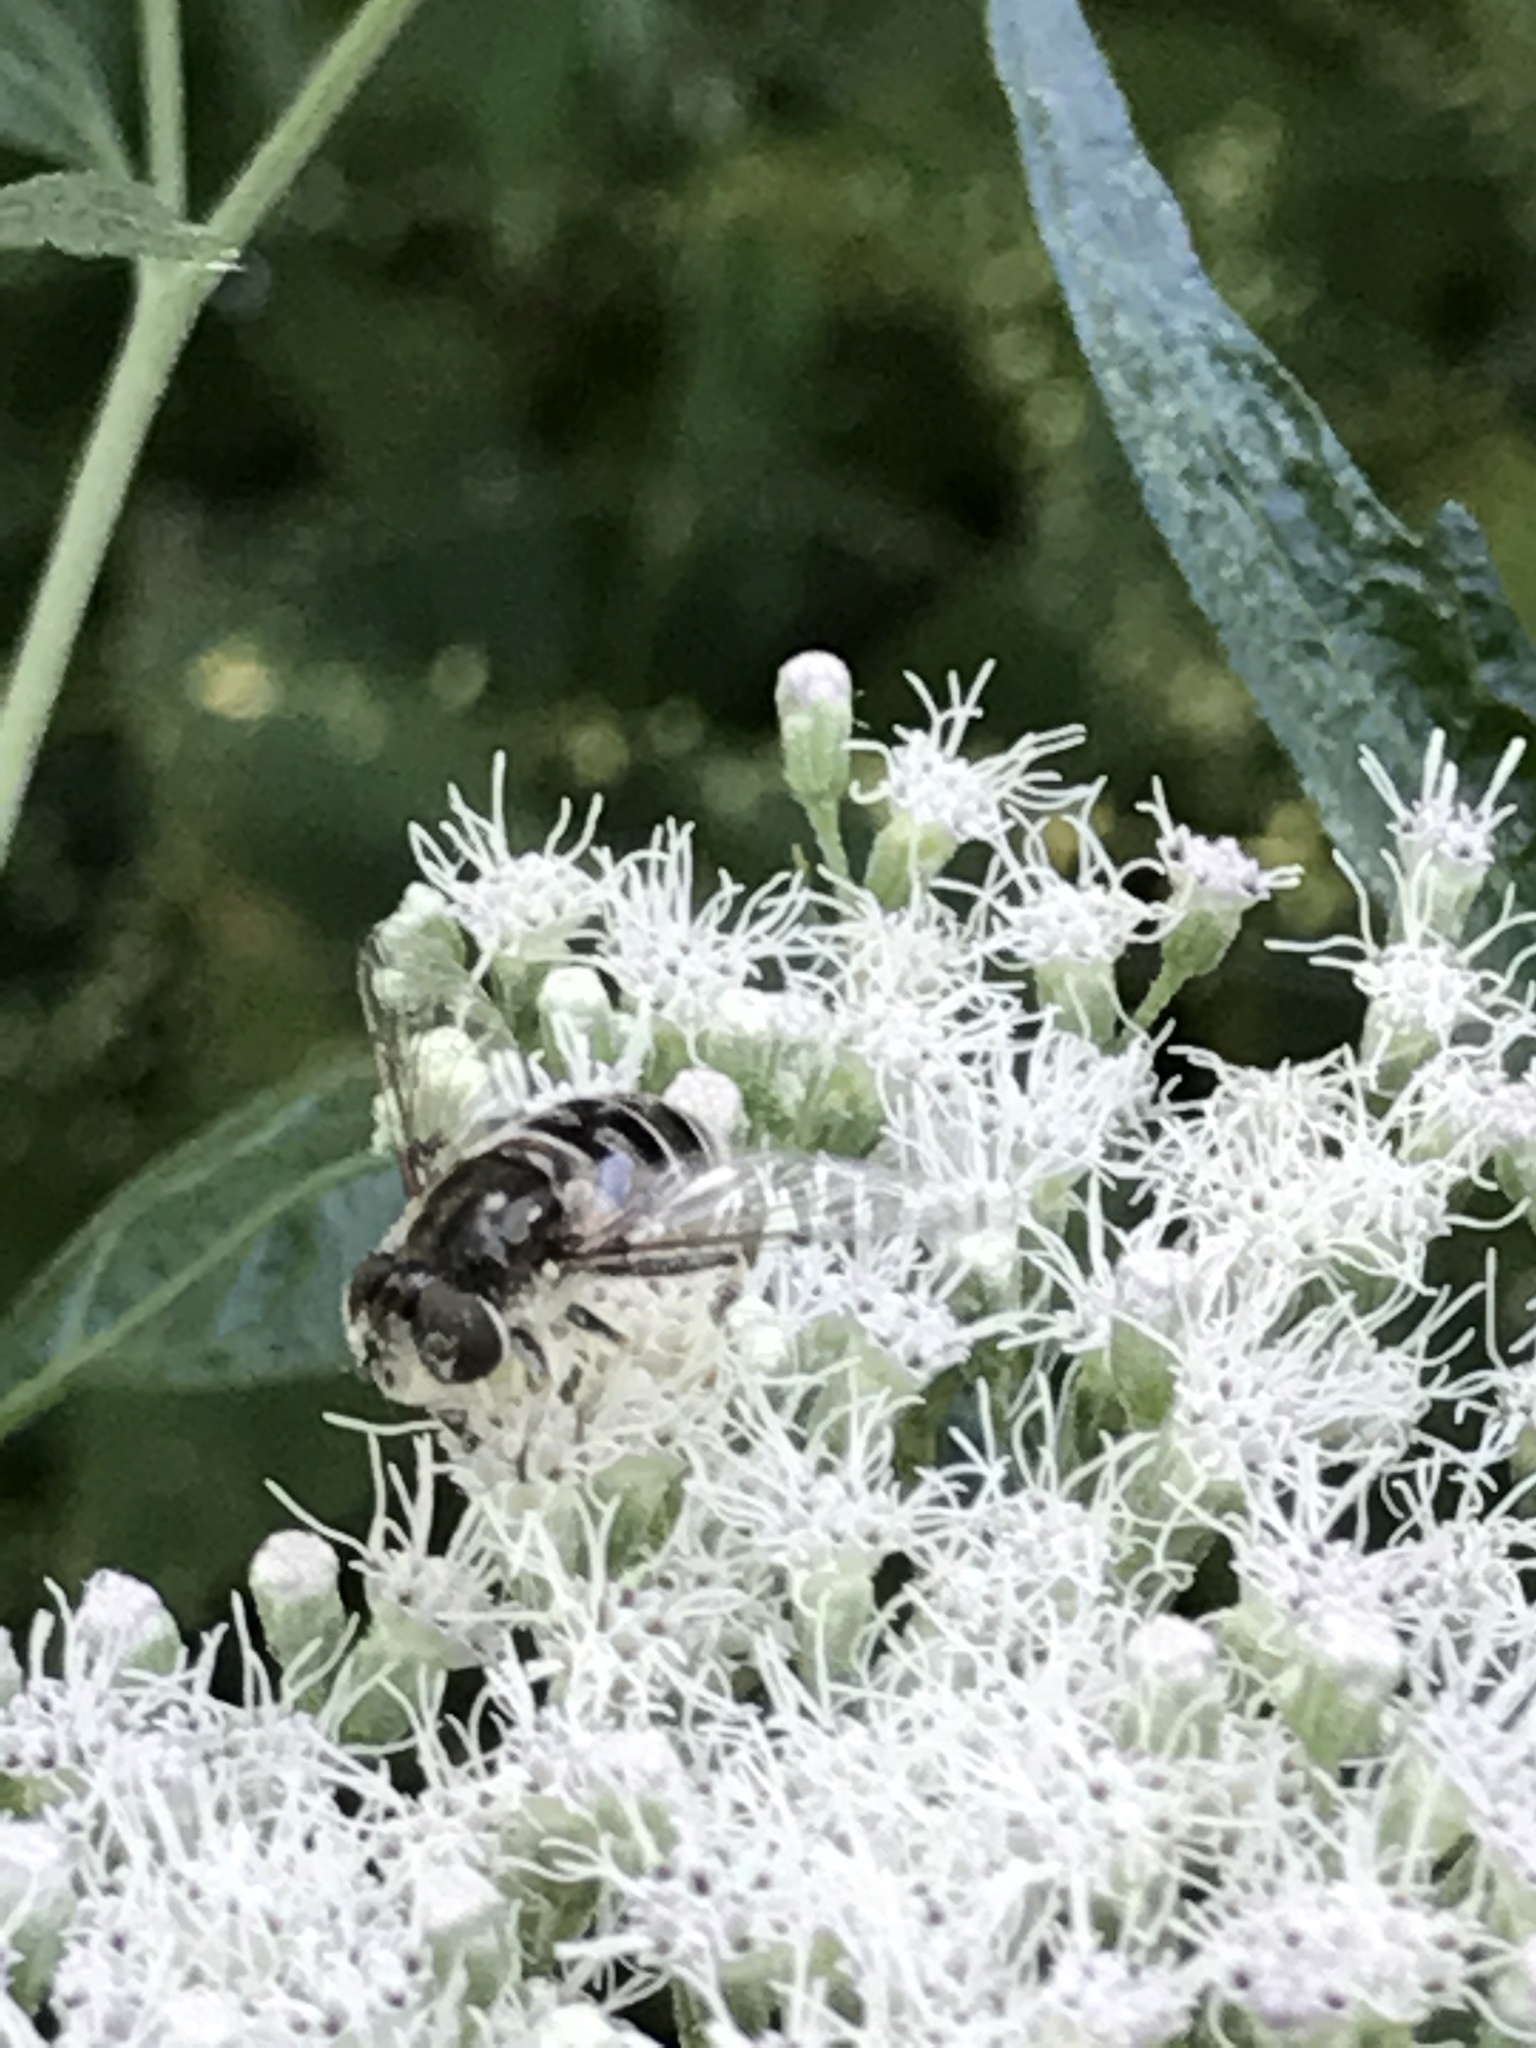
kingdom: Animalia
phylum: Arthropoda
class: Insecta
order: Diptera
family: Syrphidae
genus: Eristalis
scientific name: Eristalis dimidiata
